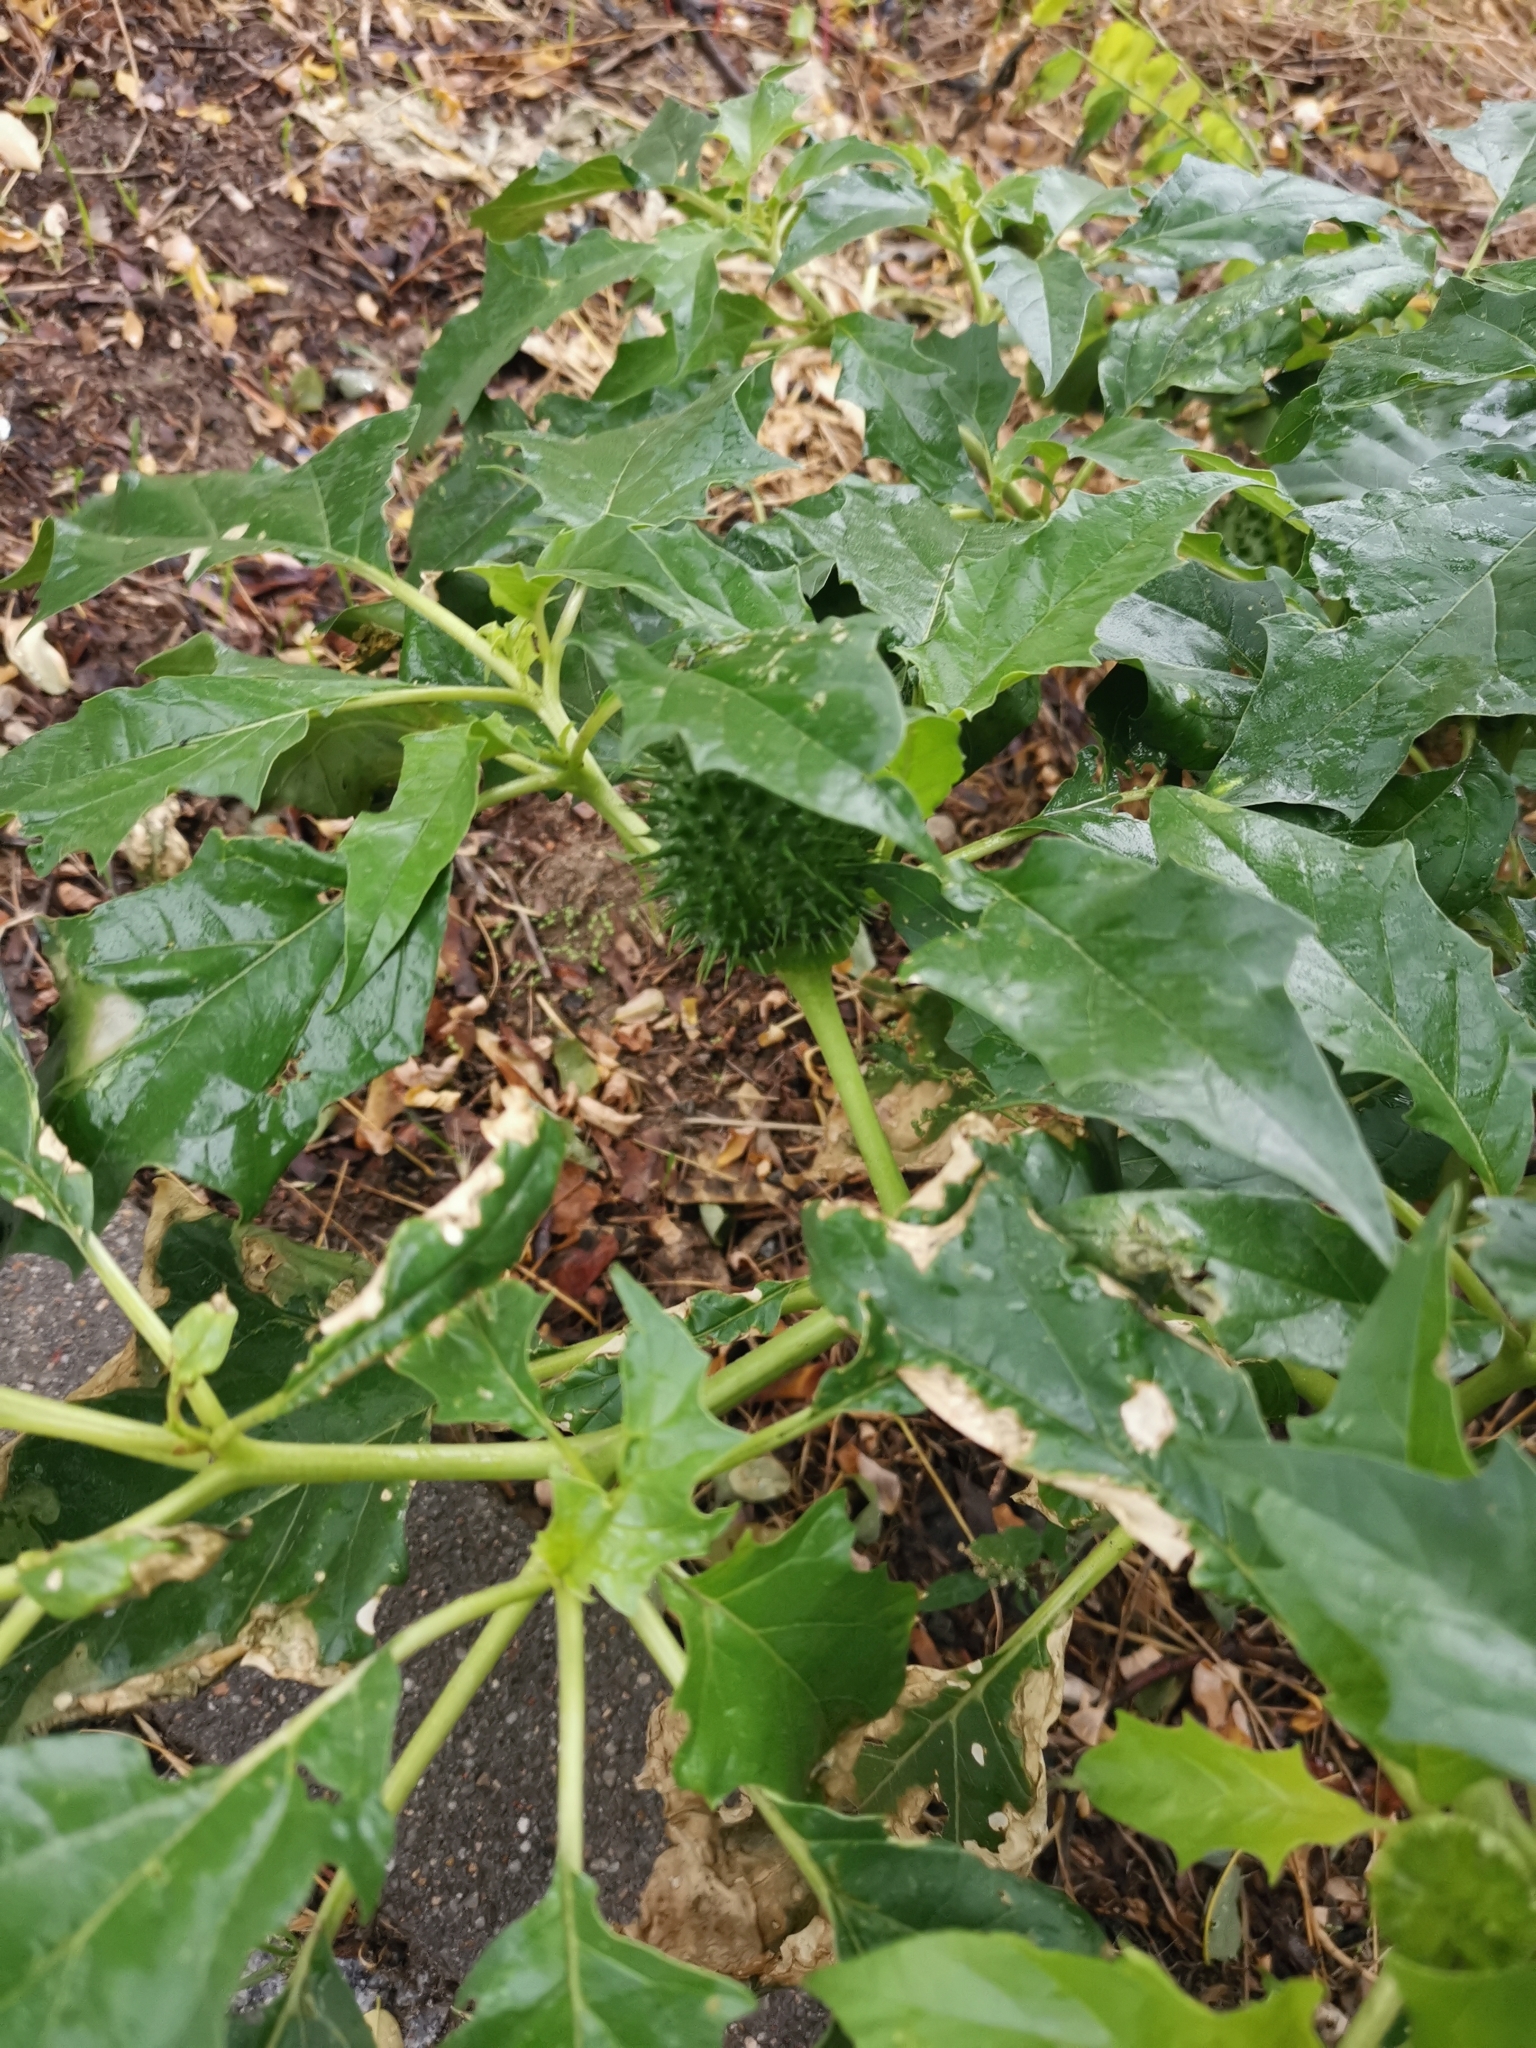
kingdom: Plantae
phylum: Tracheophyta
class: Magnoliopsida
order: Solanales
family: Solanaceae
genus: Datura
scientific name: Datura stramonium
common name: Thorn-apple
